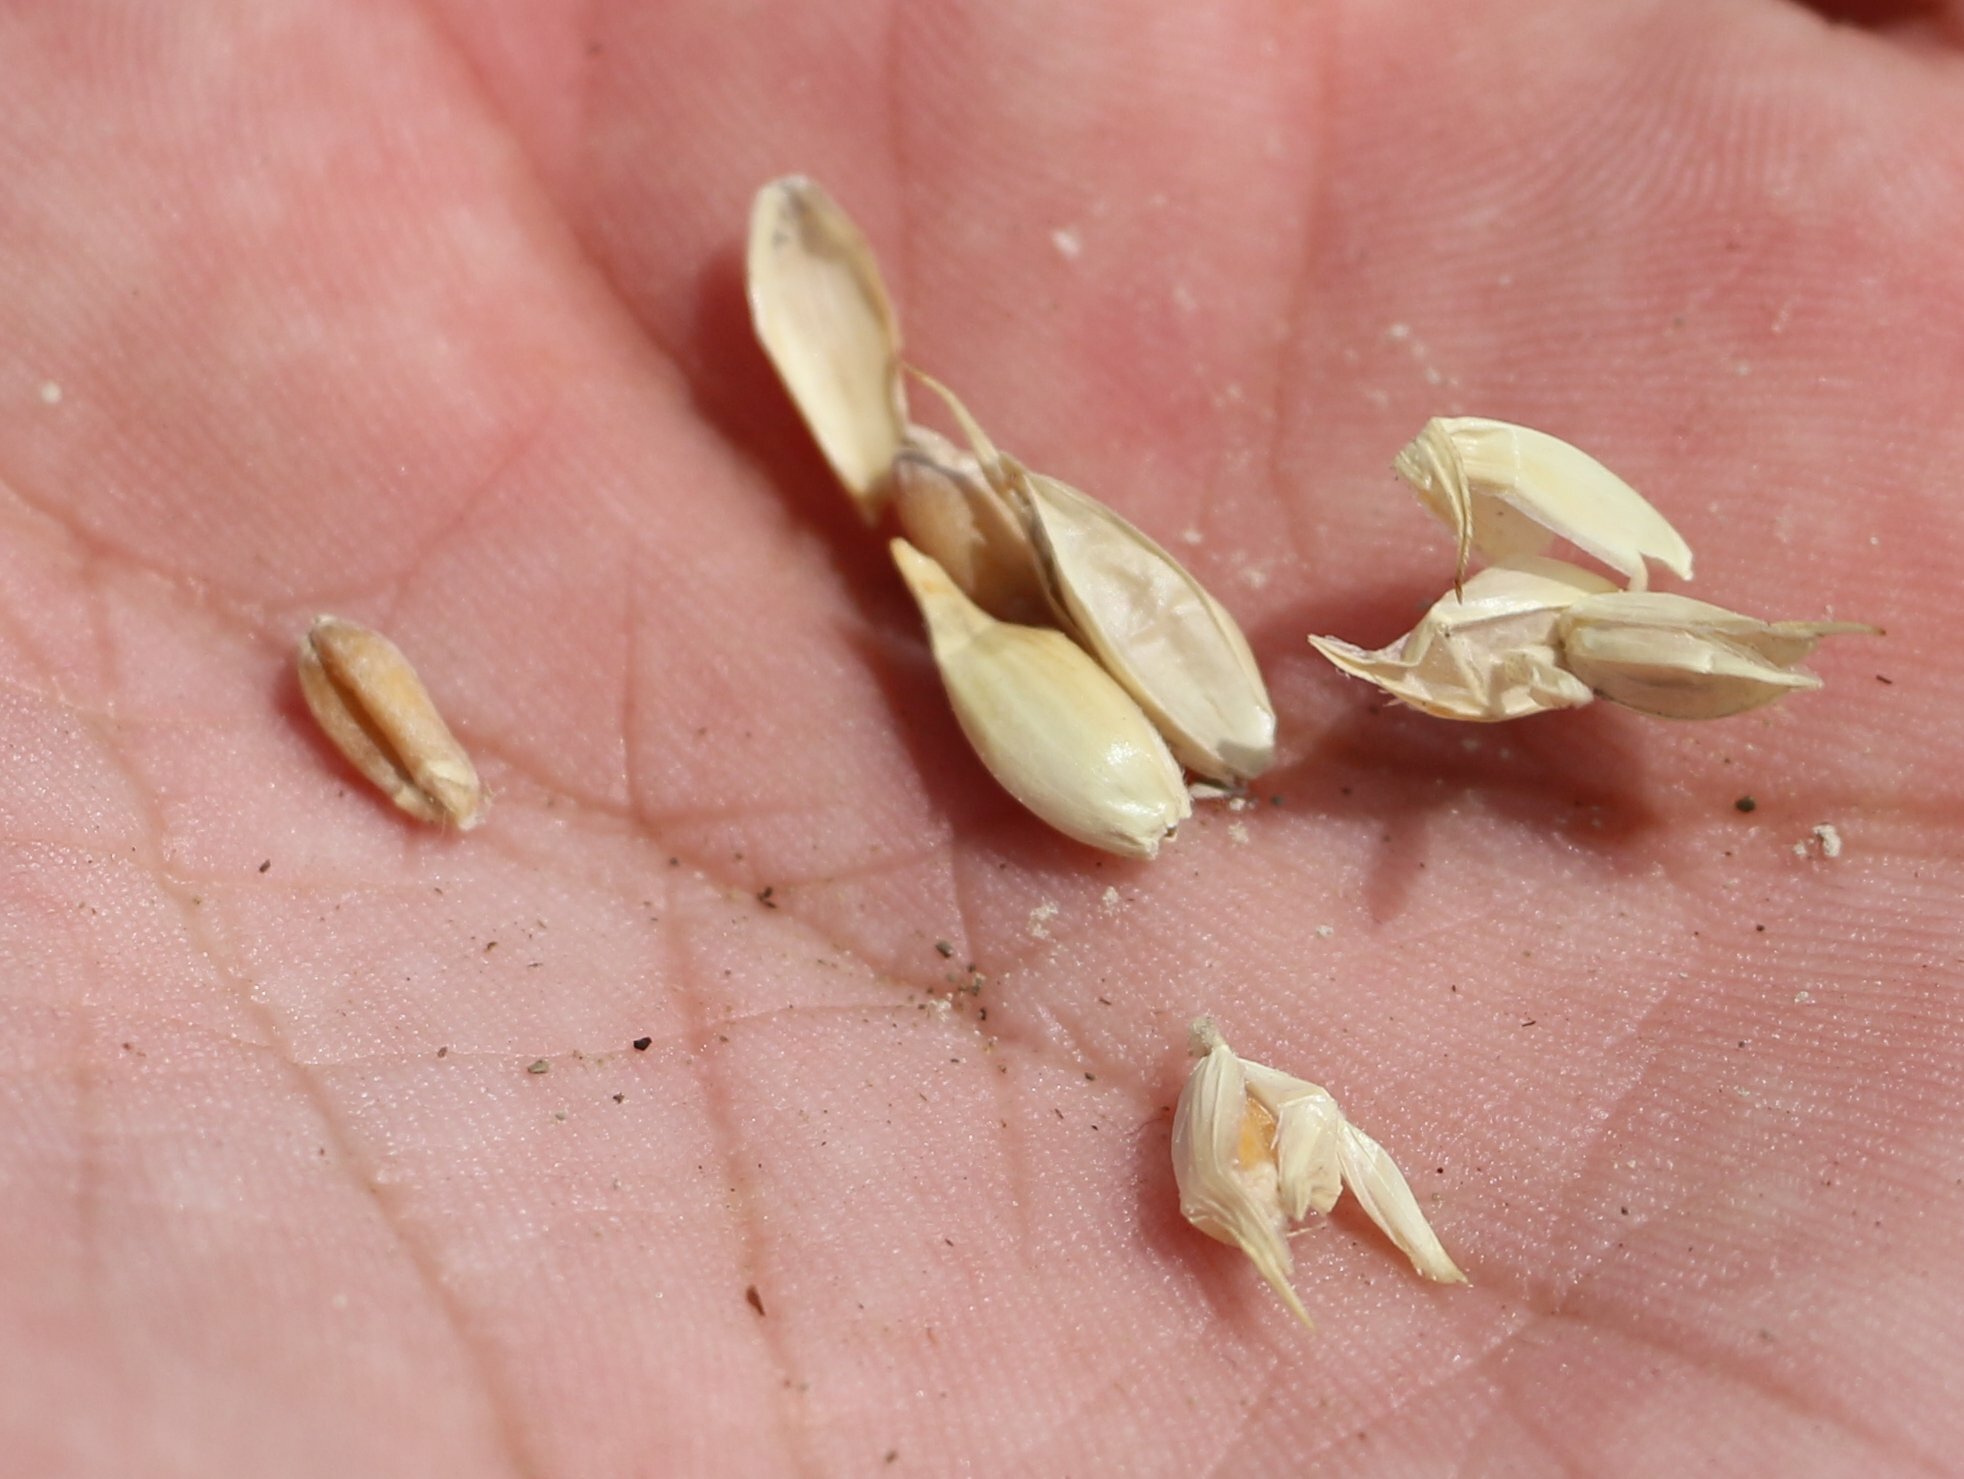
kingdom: Plantae
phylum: Tracheophyta
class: Liliopsida
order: Poales
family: Poaceae
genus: Triticum
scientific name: Triticum aestivum
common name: Common wheat
